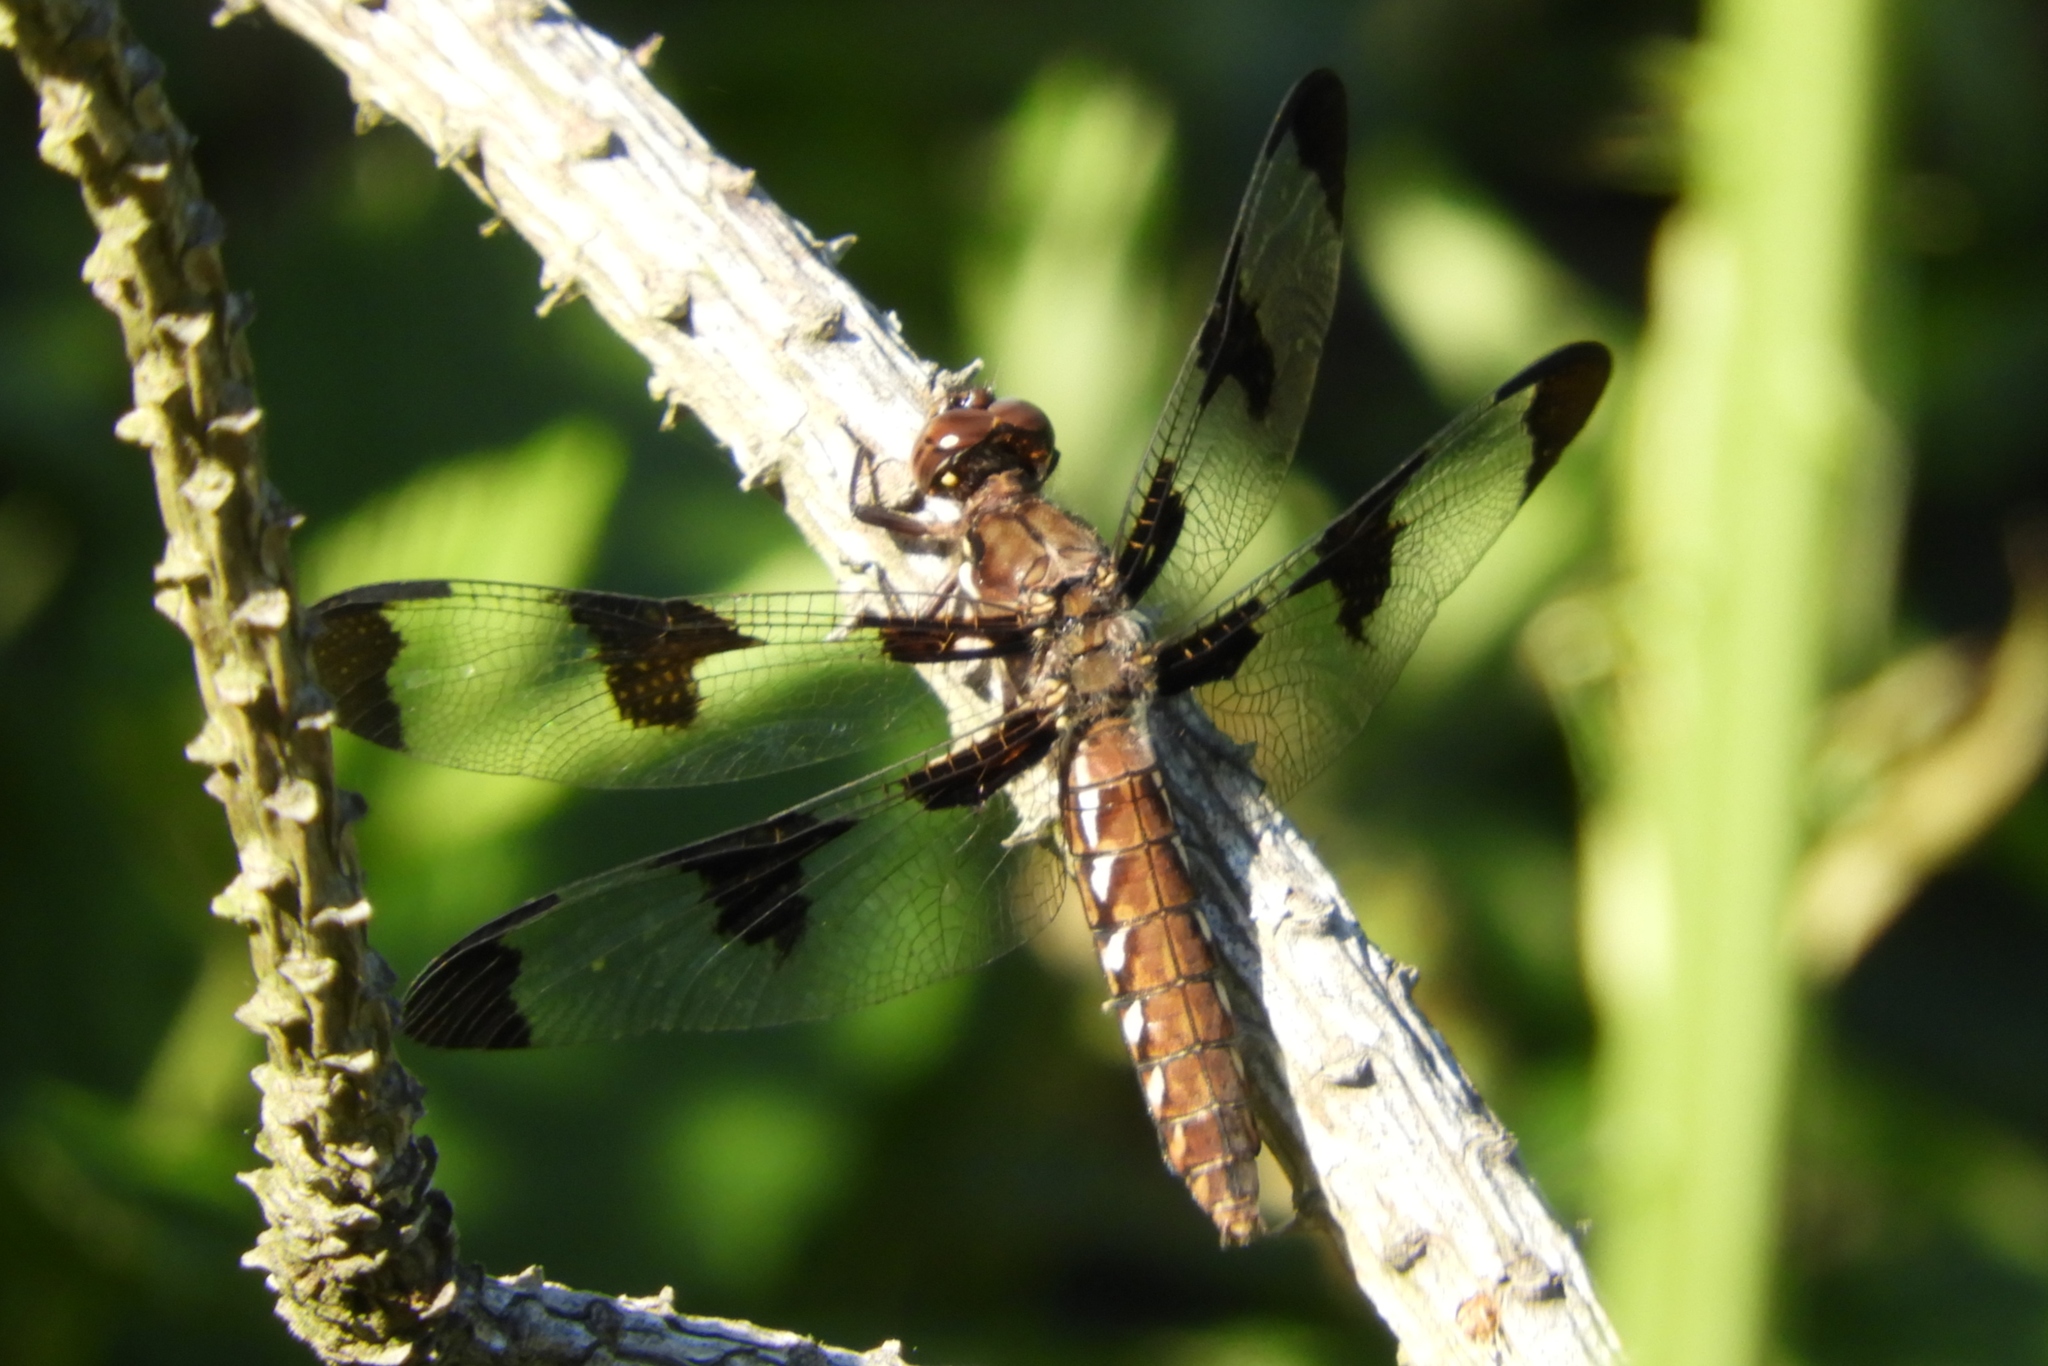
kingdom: Animalia
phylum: Arthropoda
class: Insecta
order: Odonata
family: Libellulidae
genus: Plathemis
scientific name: Plathemis lydia
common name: Common whitetail
